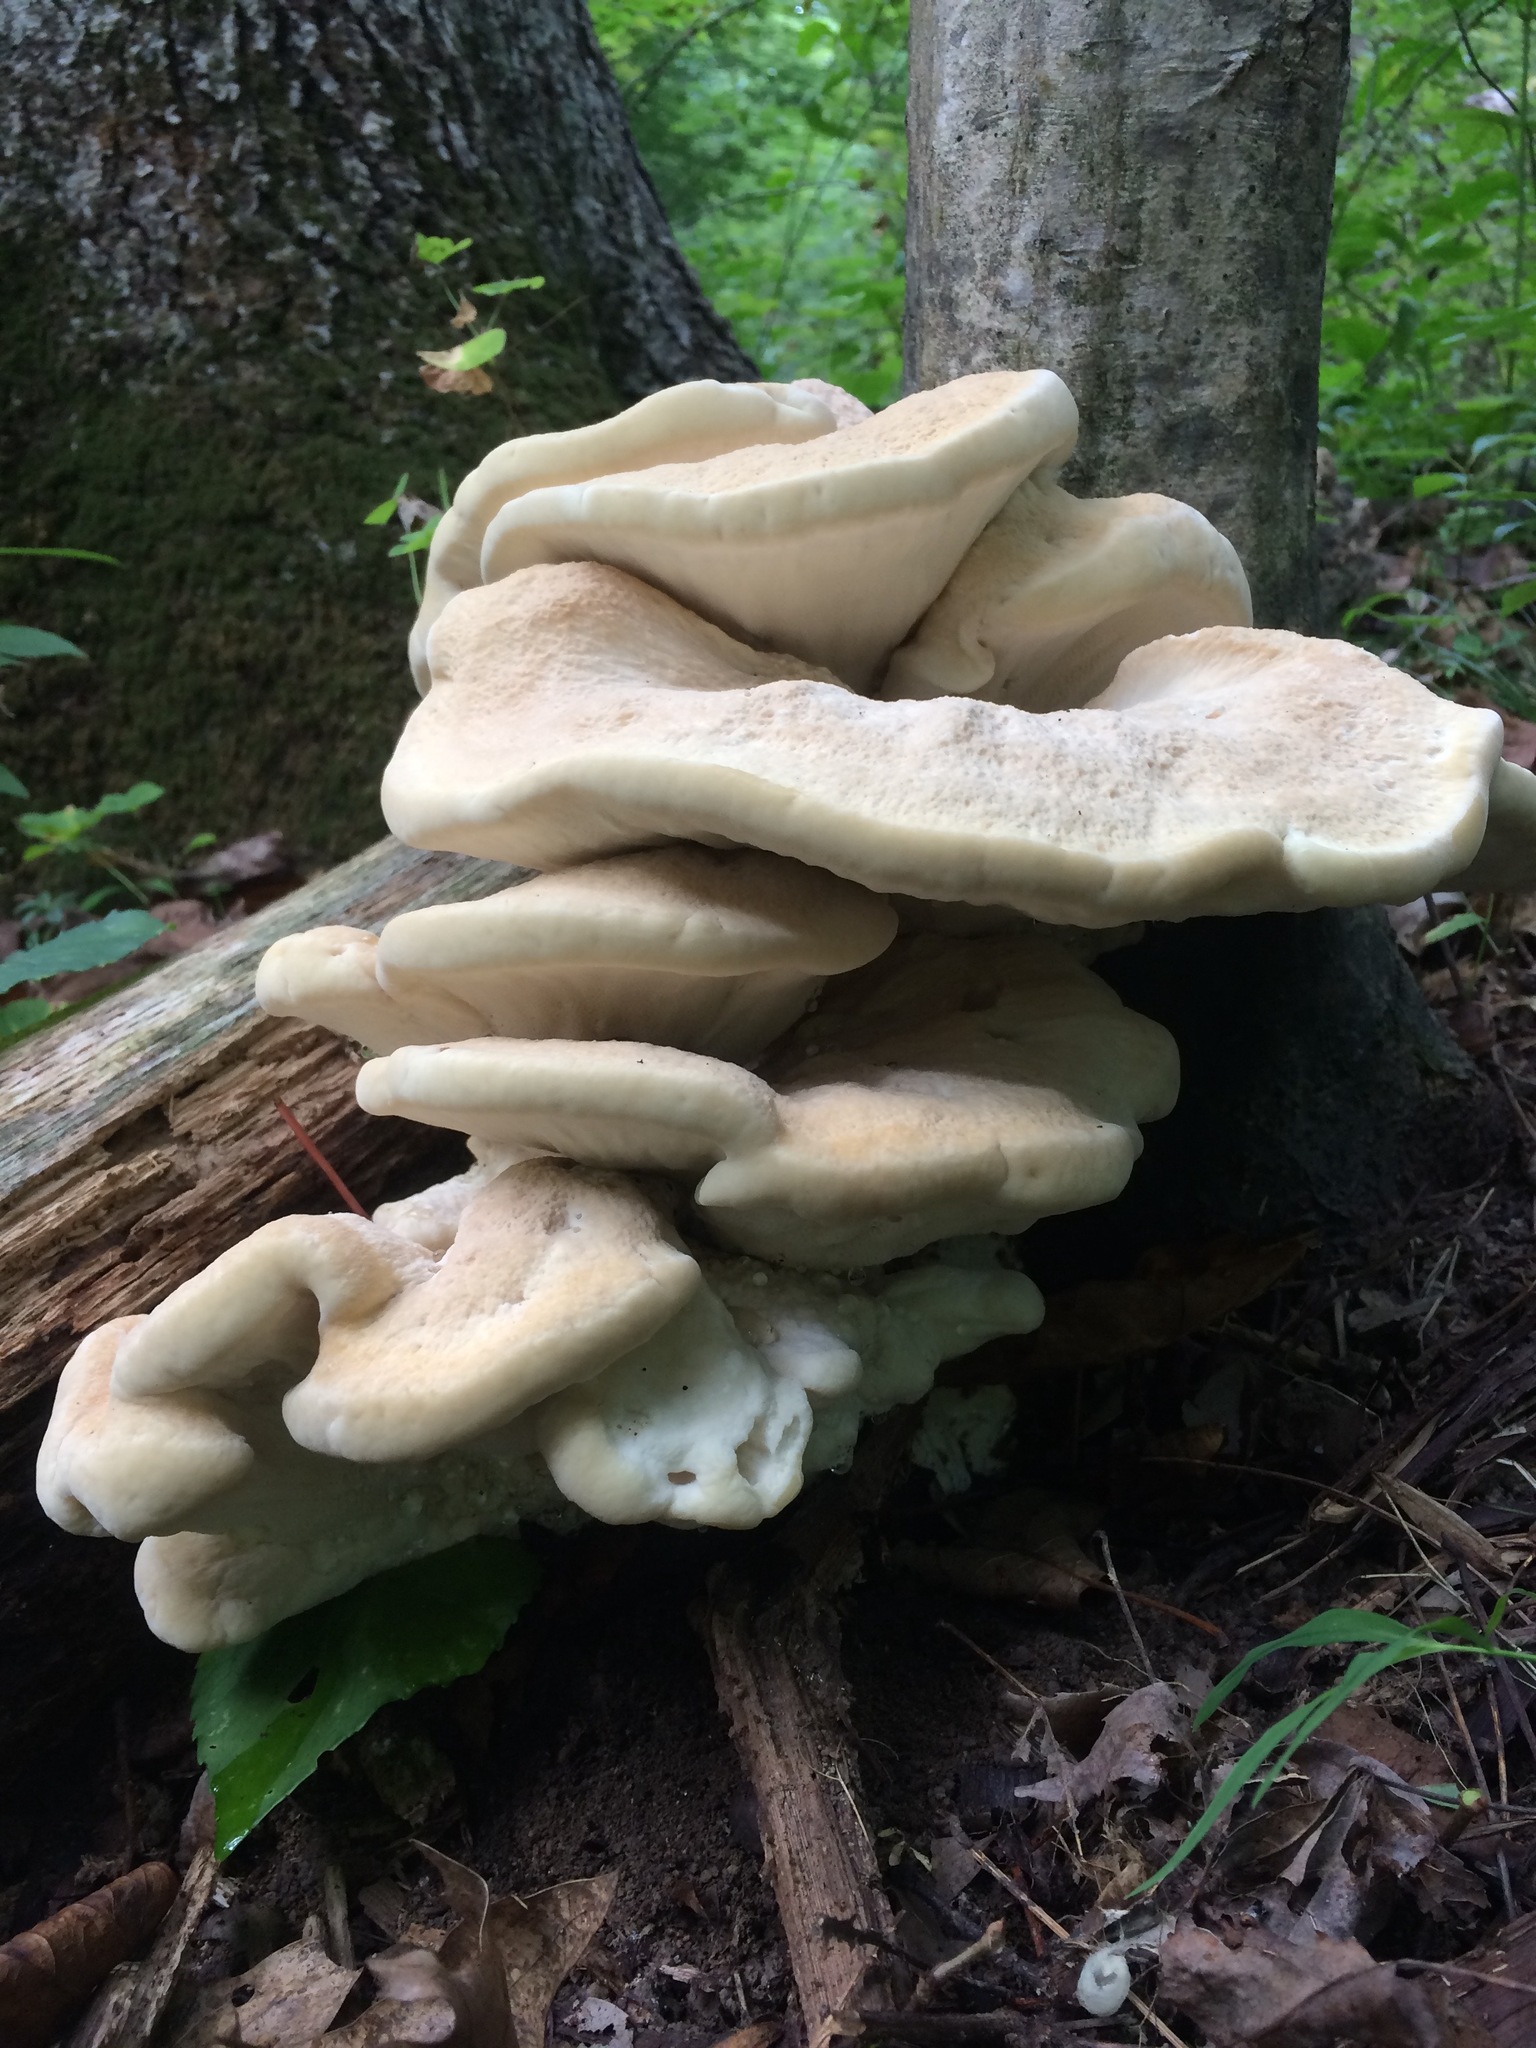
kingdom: Fungi
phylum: Basidiomycota
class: Agaricomycetes
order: Russulales
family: Bondarzewiaceae
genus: Bondarzewia
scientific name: Bondarzewia berkeleyi
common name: Berkeley's polypore
